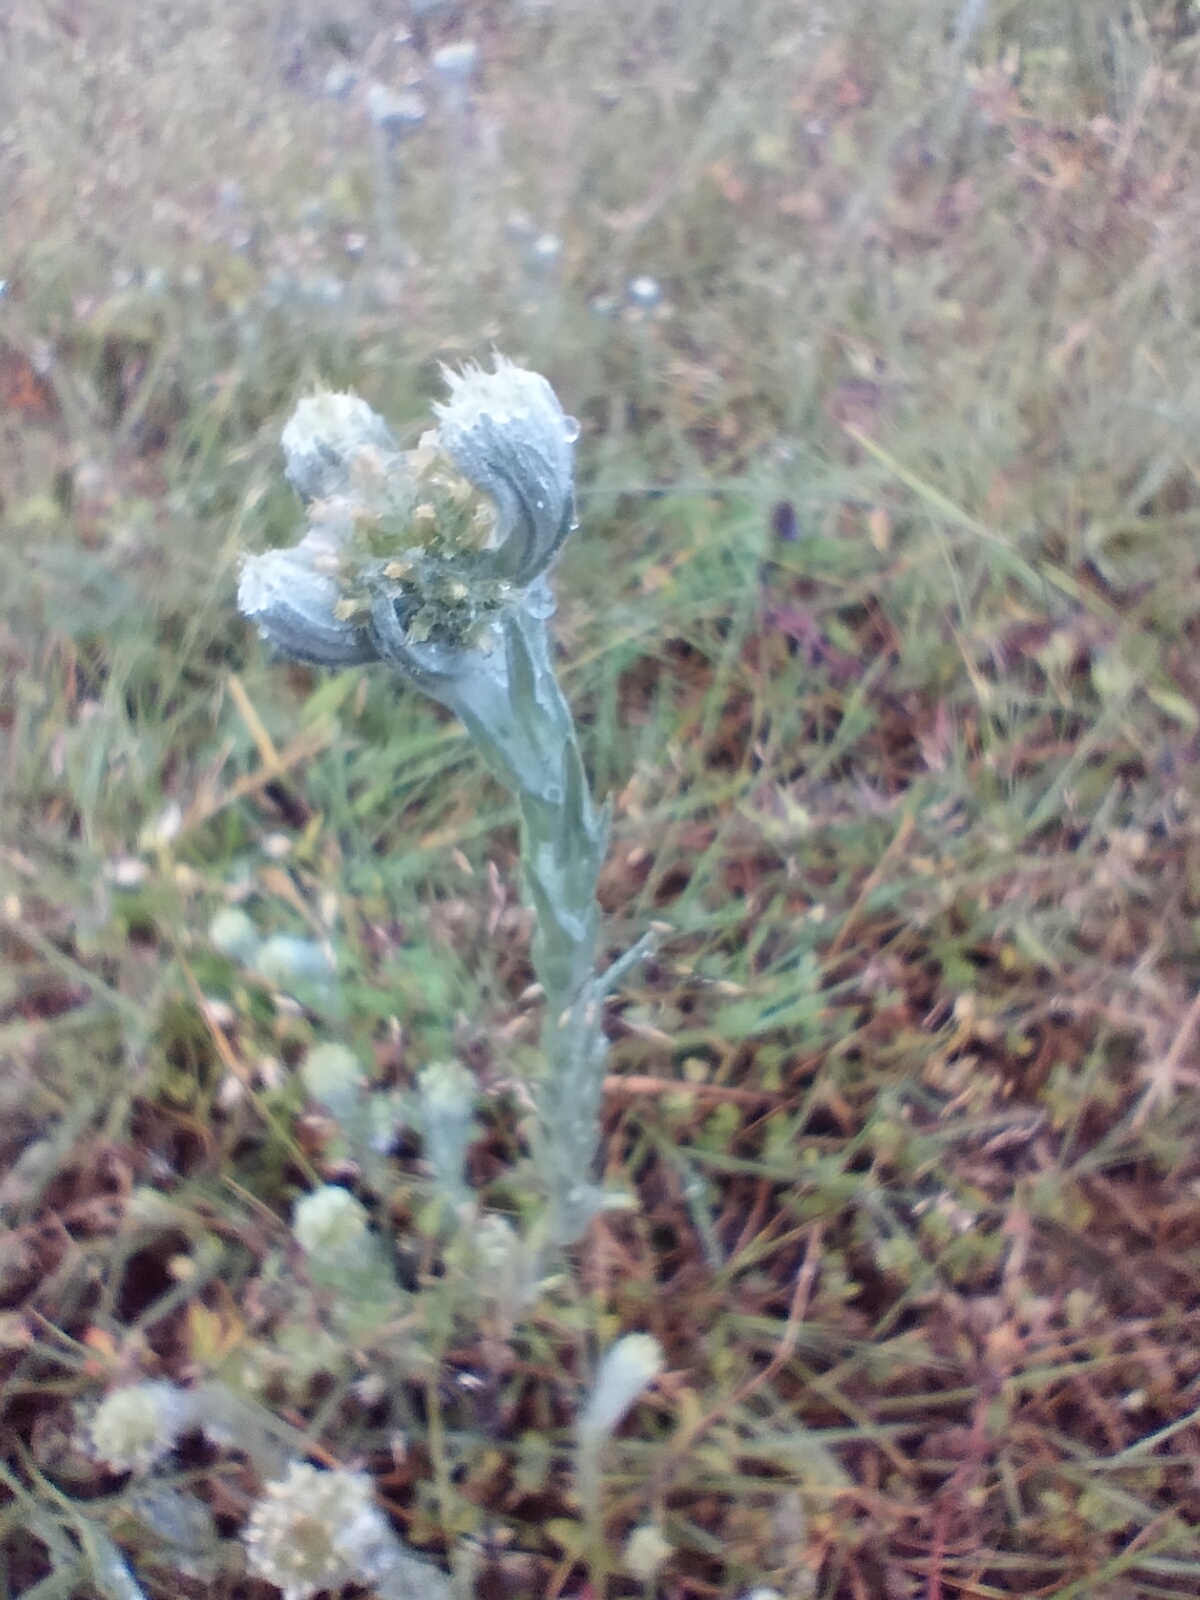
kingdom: Plantae
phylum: Tracheophyta
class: Magnoliopsida
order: Asterales
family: Asteraceae
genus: Filago
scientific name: Filago germanica
